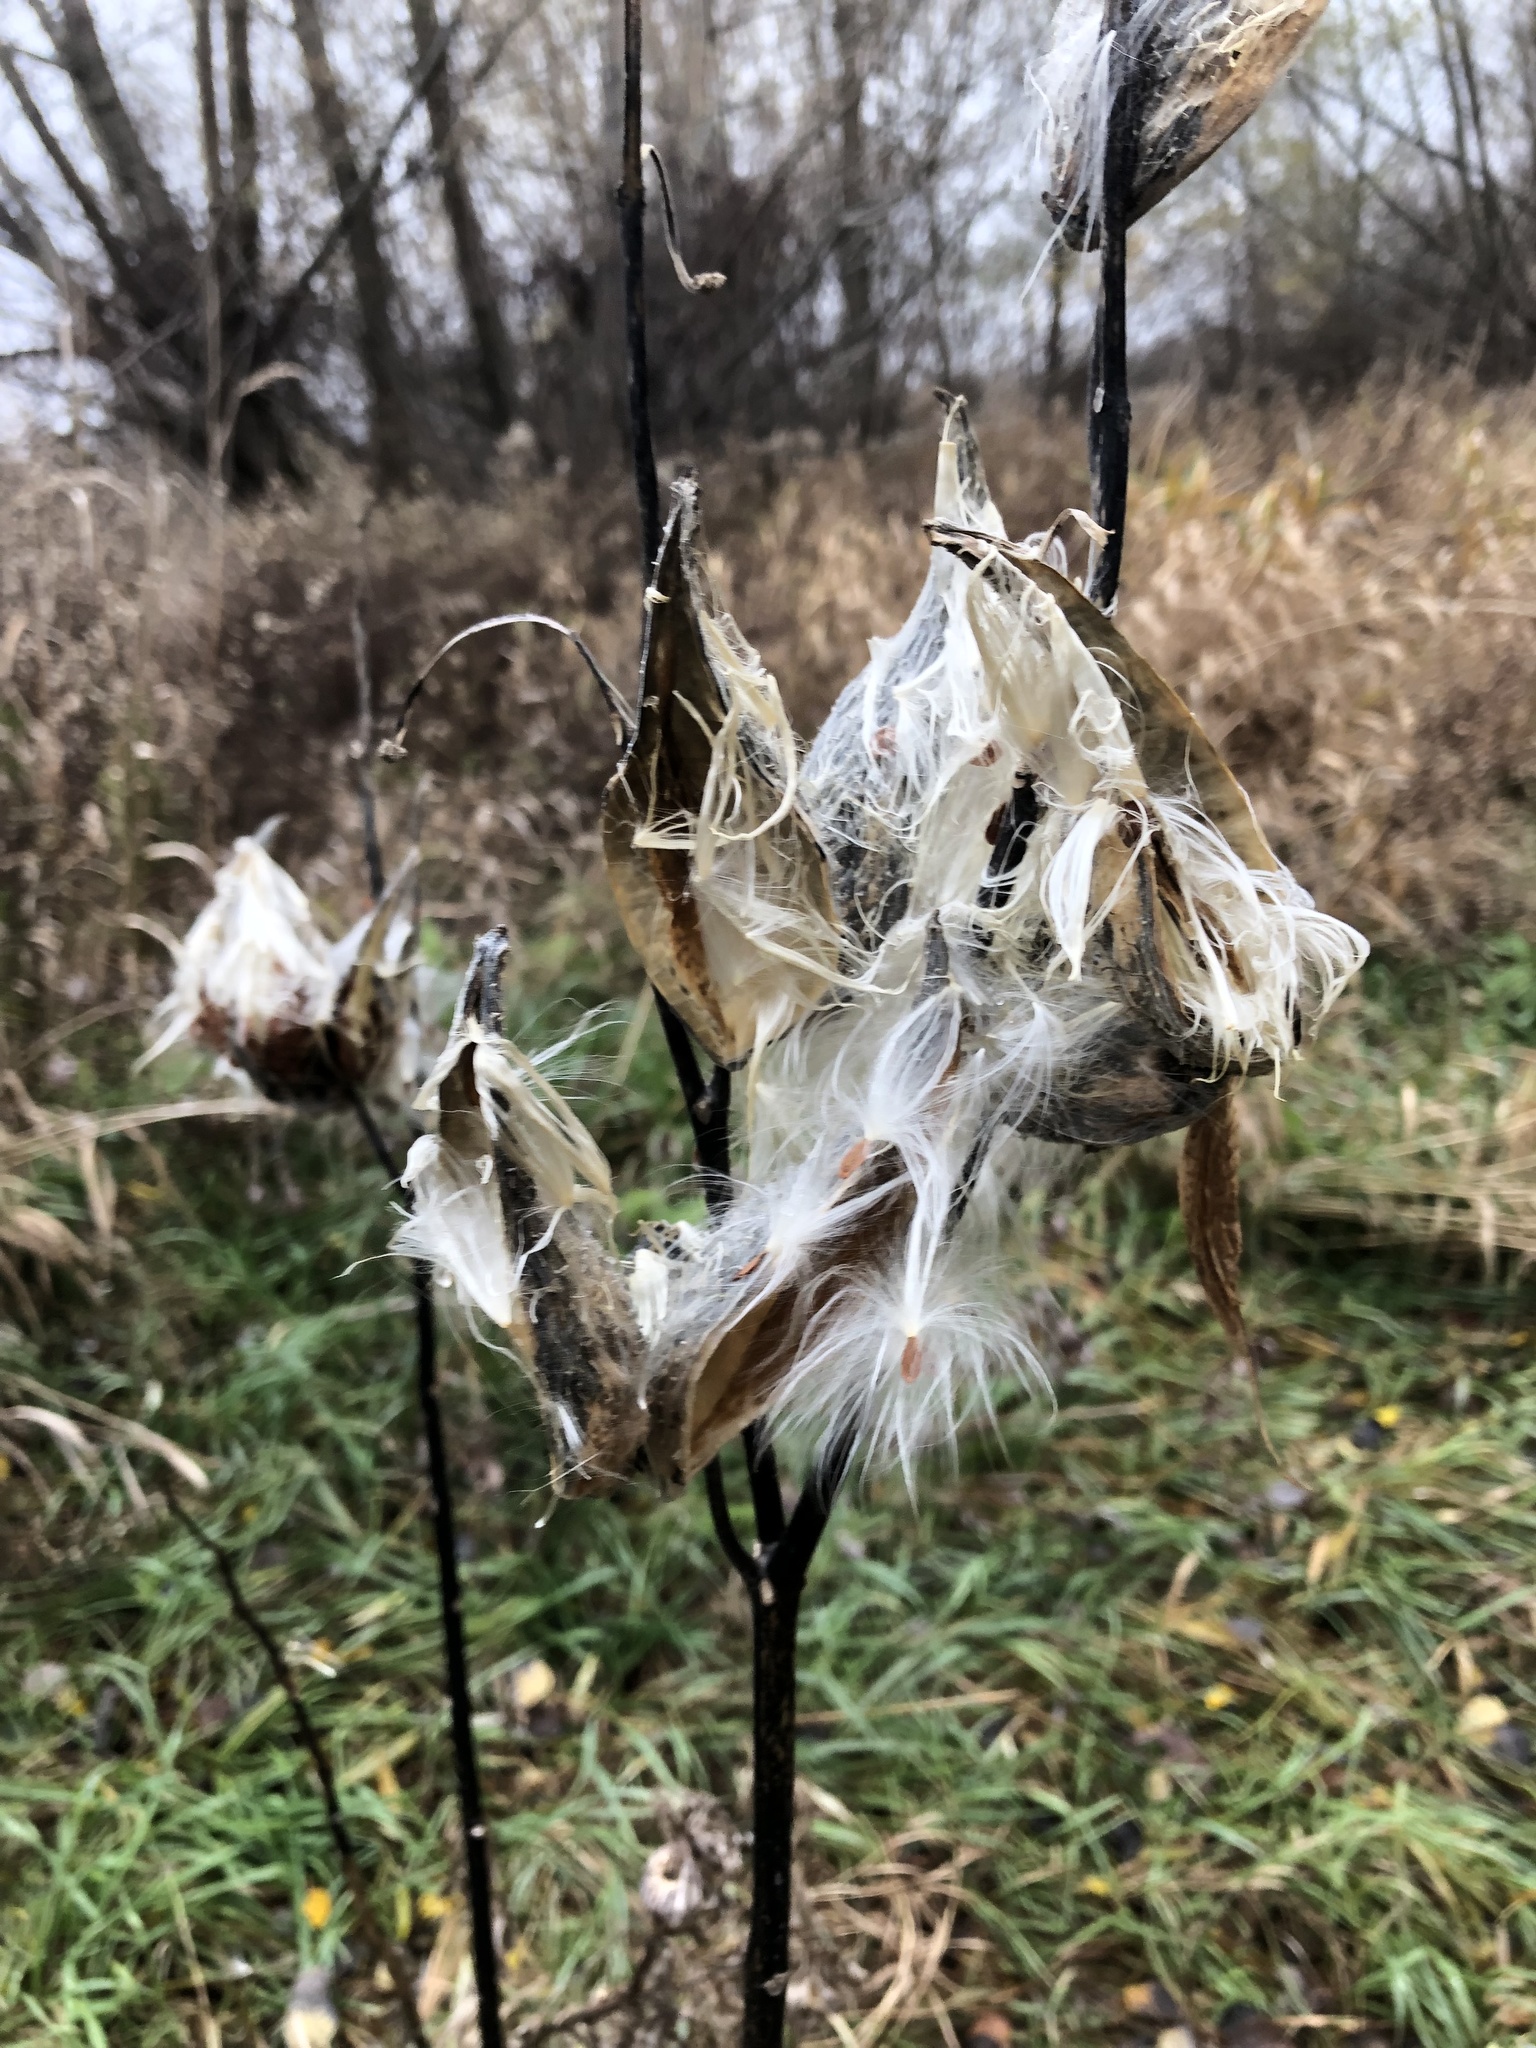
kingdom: Plantae
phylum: Tracheophyta
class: Magnoliopsida
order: Gentianales
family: Apocynaceae
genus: Asclepias
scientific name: Asclepias syriaca
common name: Common milkweed
